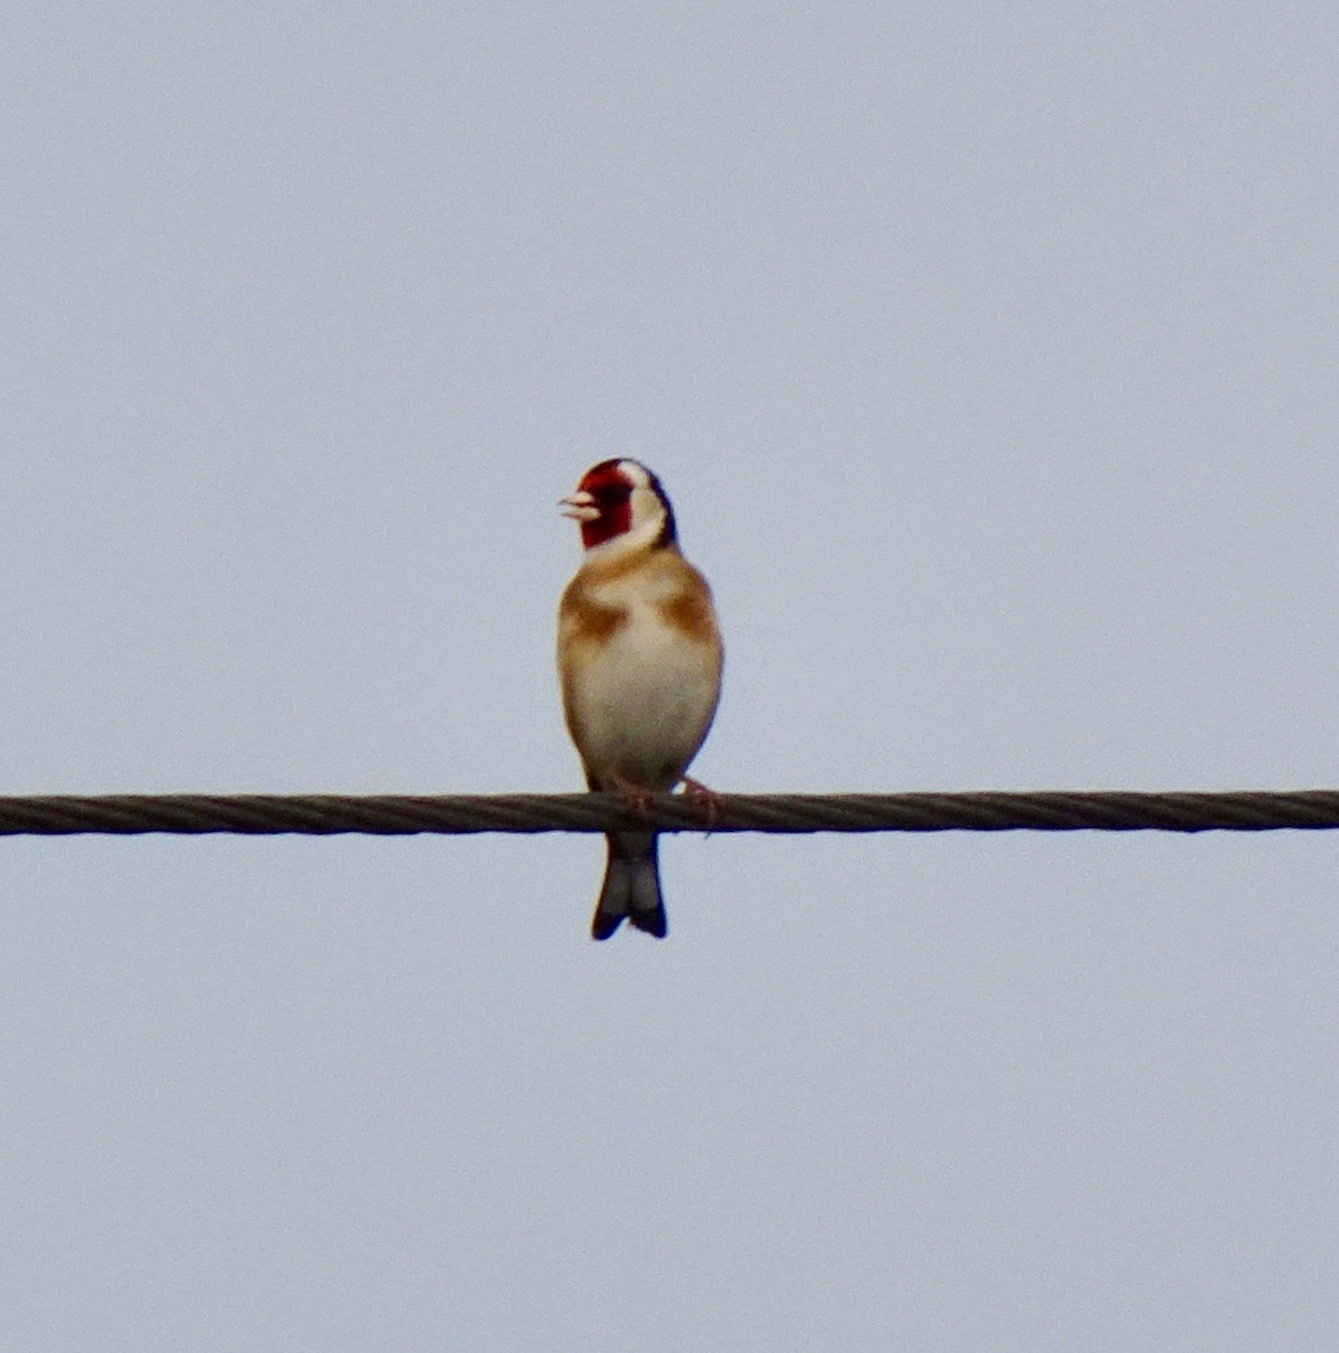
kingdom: Animalia
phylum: Chordata
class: Aves
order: Passeriformes
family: Fringillidae
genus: Carduelis
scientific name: Carduelis carduelis
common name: European goldfinch
